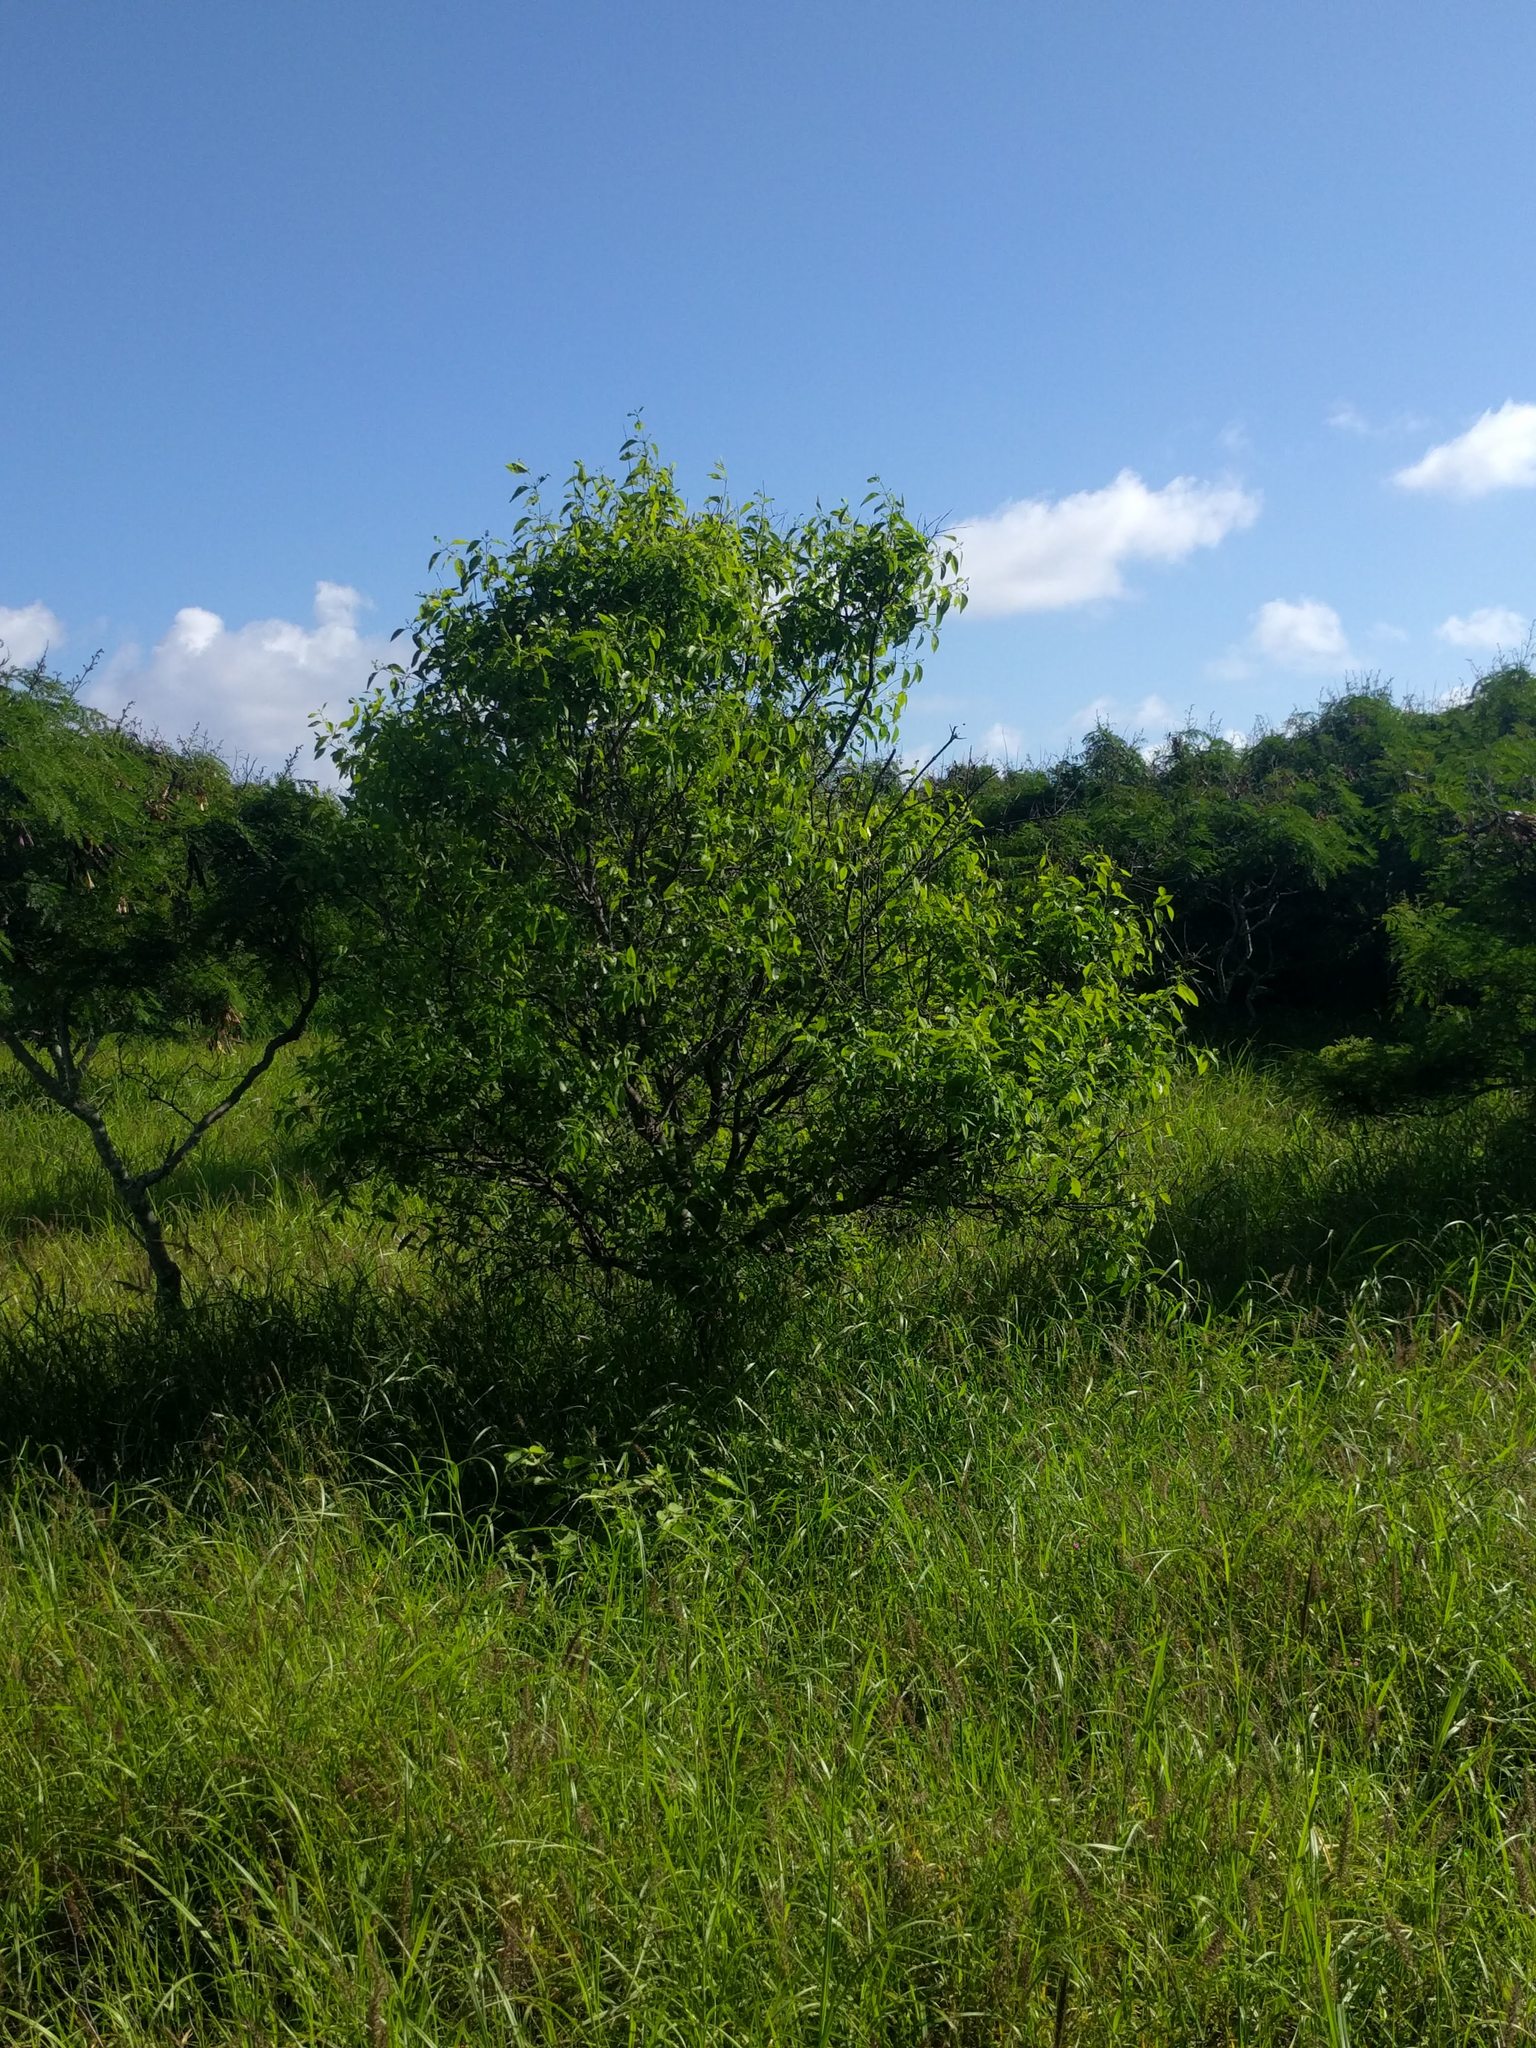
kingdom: Plantae
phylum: Tracheophyta
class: Magnoliopsida
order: Santalales
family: Santalaceae
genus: Santalum
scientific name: Santalum album
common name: Indian sandalwood
